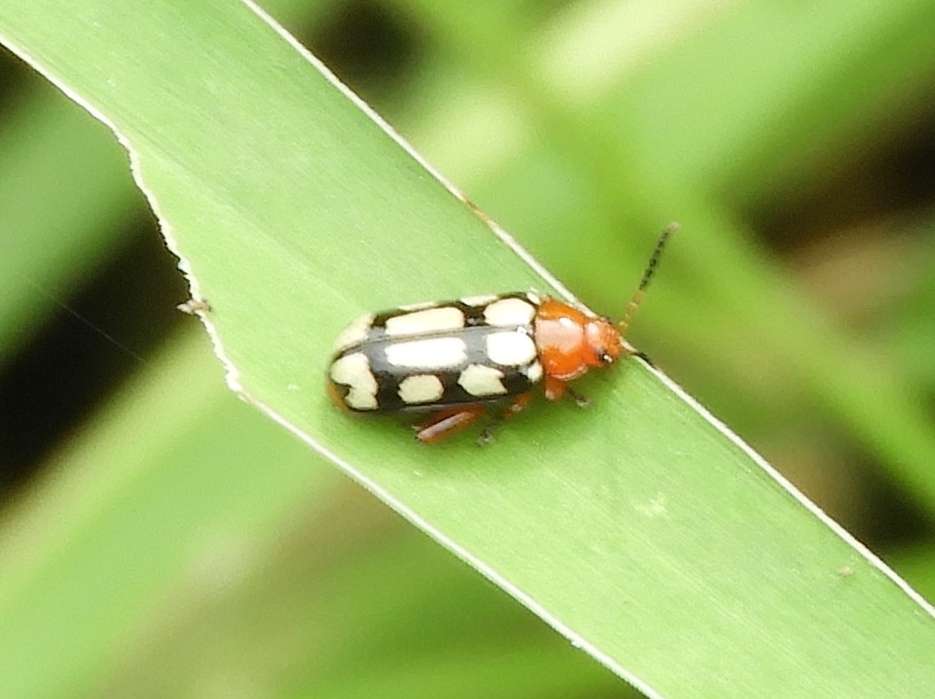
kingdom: Animalia
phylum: Arthropoda
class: Insecta
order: Coleoptera
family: Chrysomelidae
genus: Disonycha
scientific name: Disonycha
